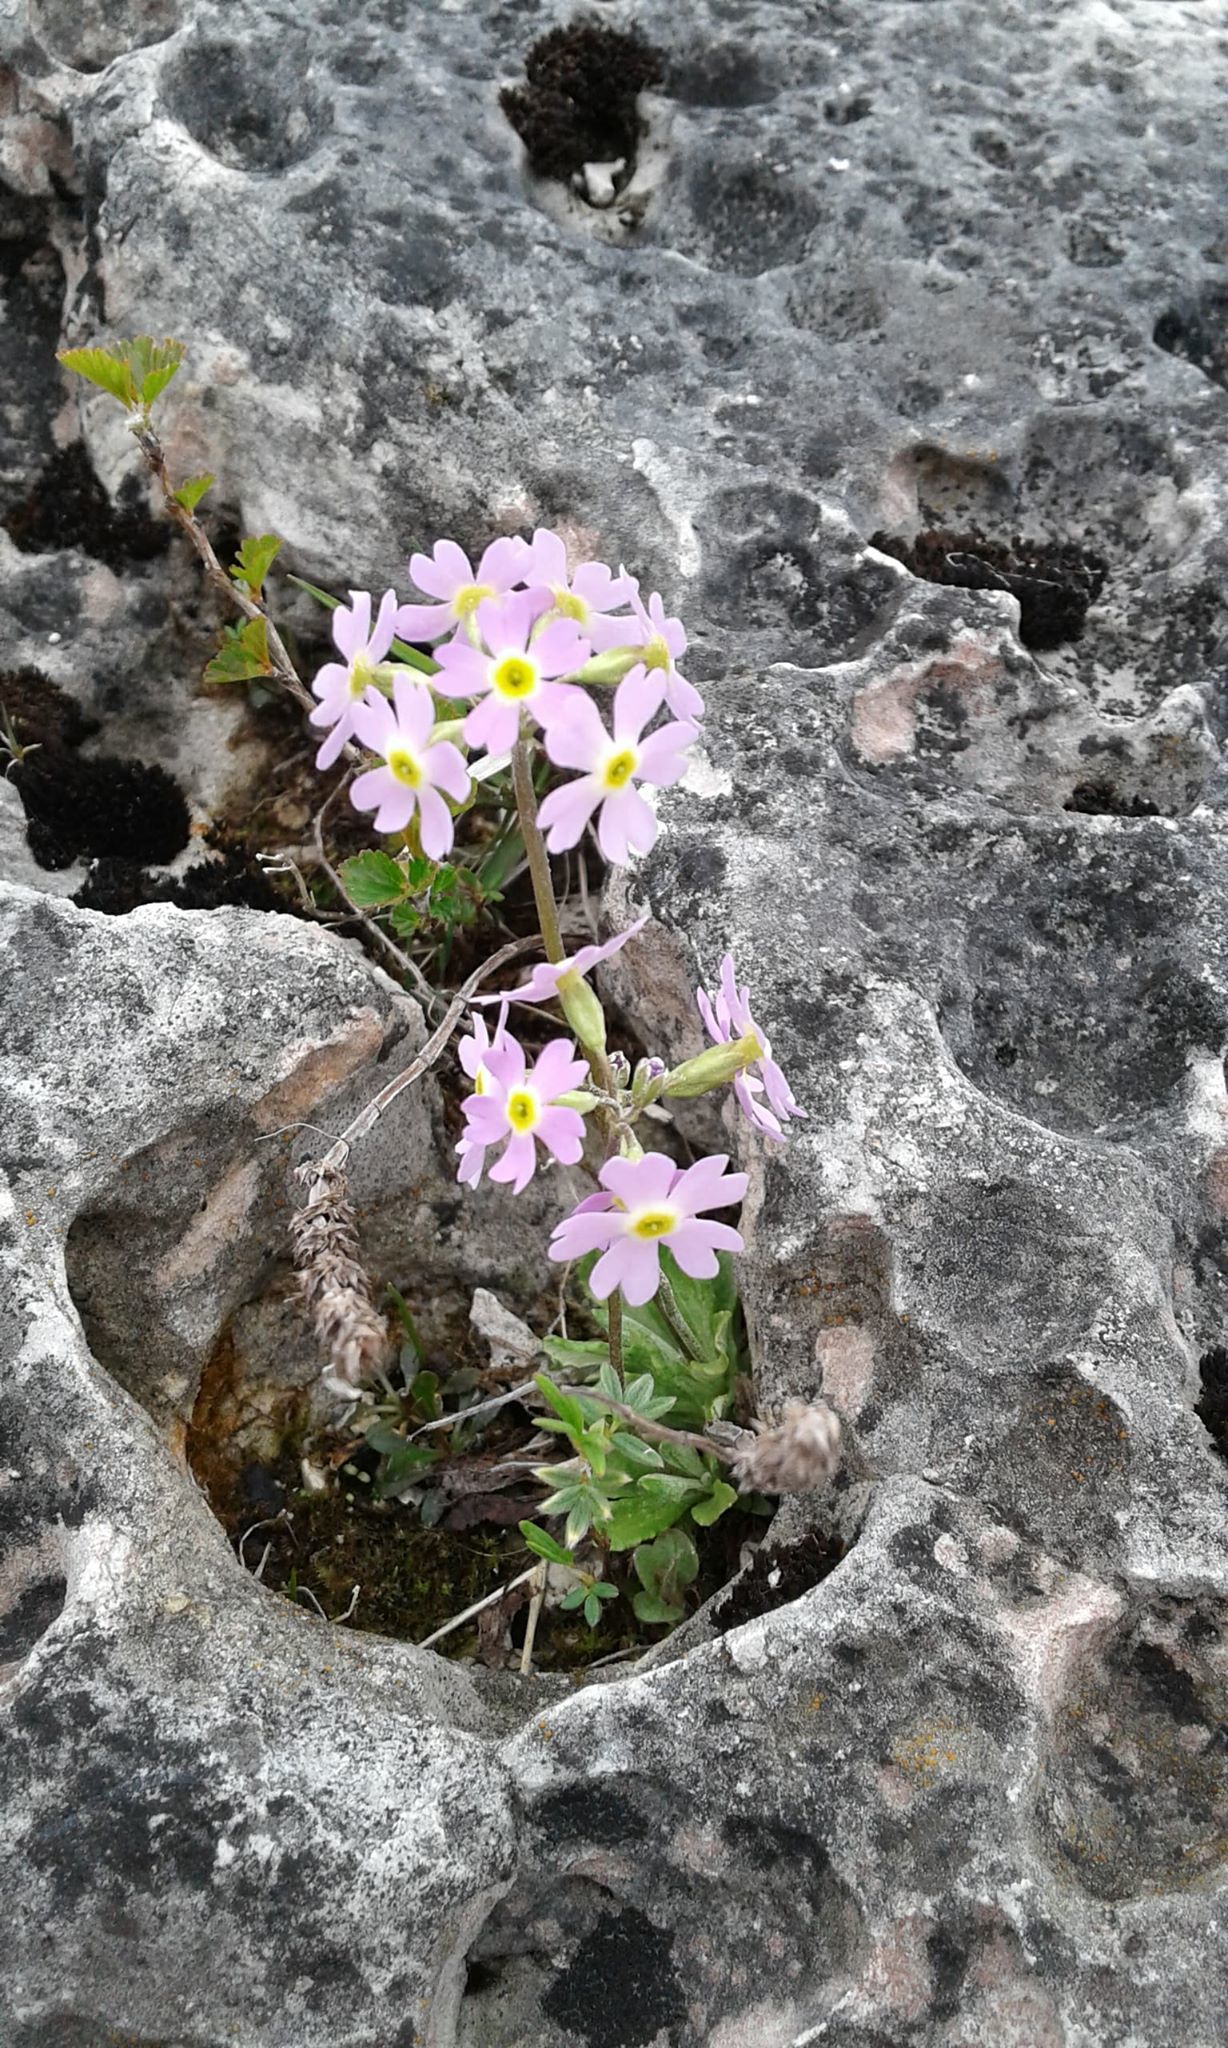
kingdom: Plantae
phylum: Tracheophyta
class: Magnoliopsida
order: Ericales
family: Primulaceae
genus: Primula
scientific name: Primula mistassinica
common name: Bird's-eye primrose
